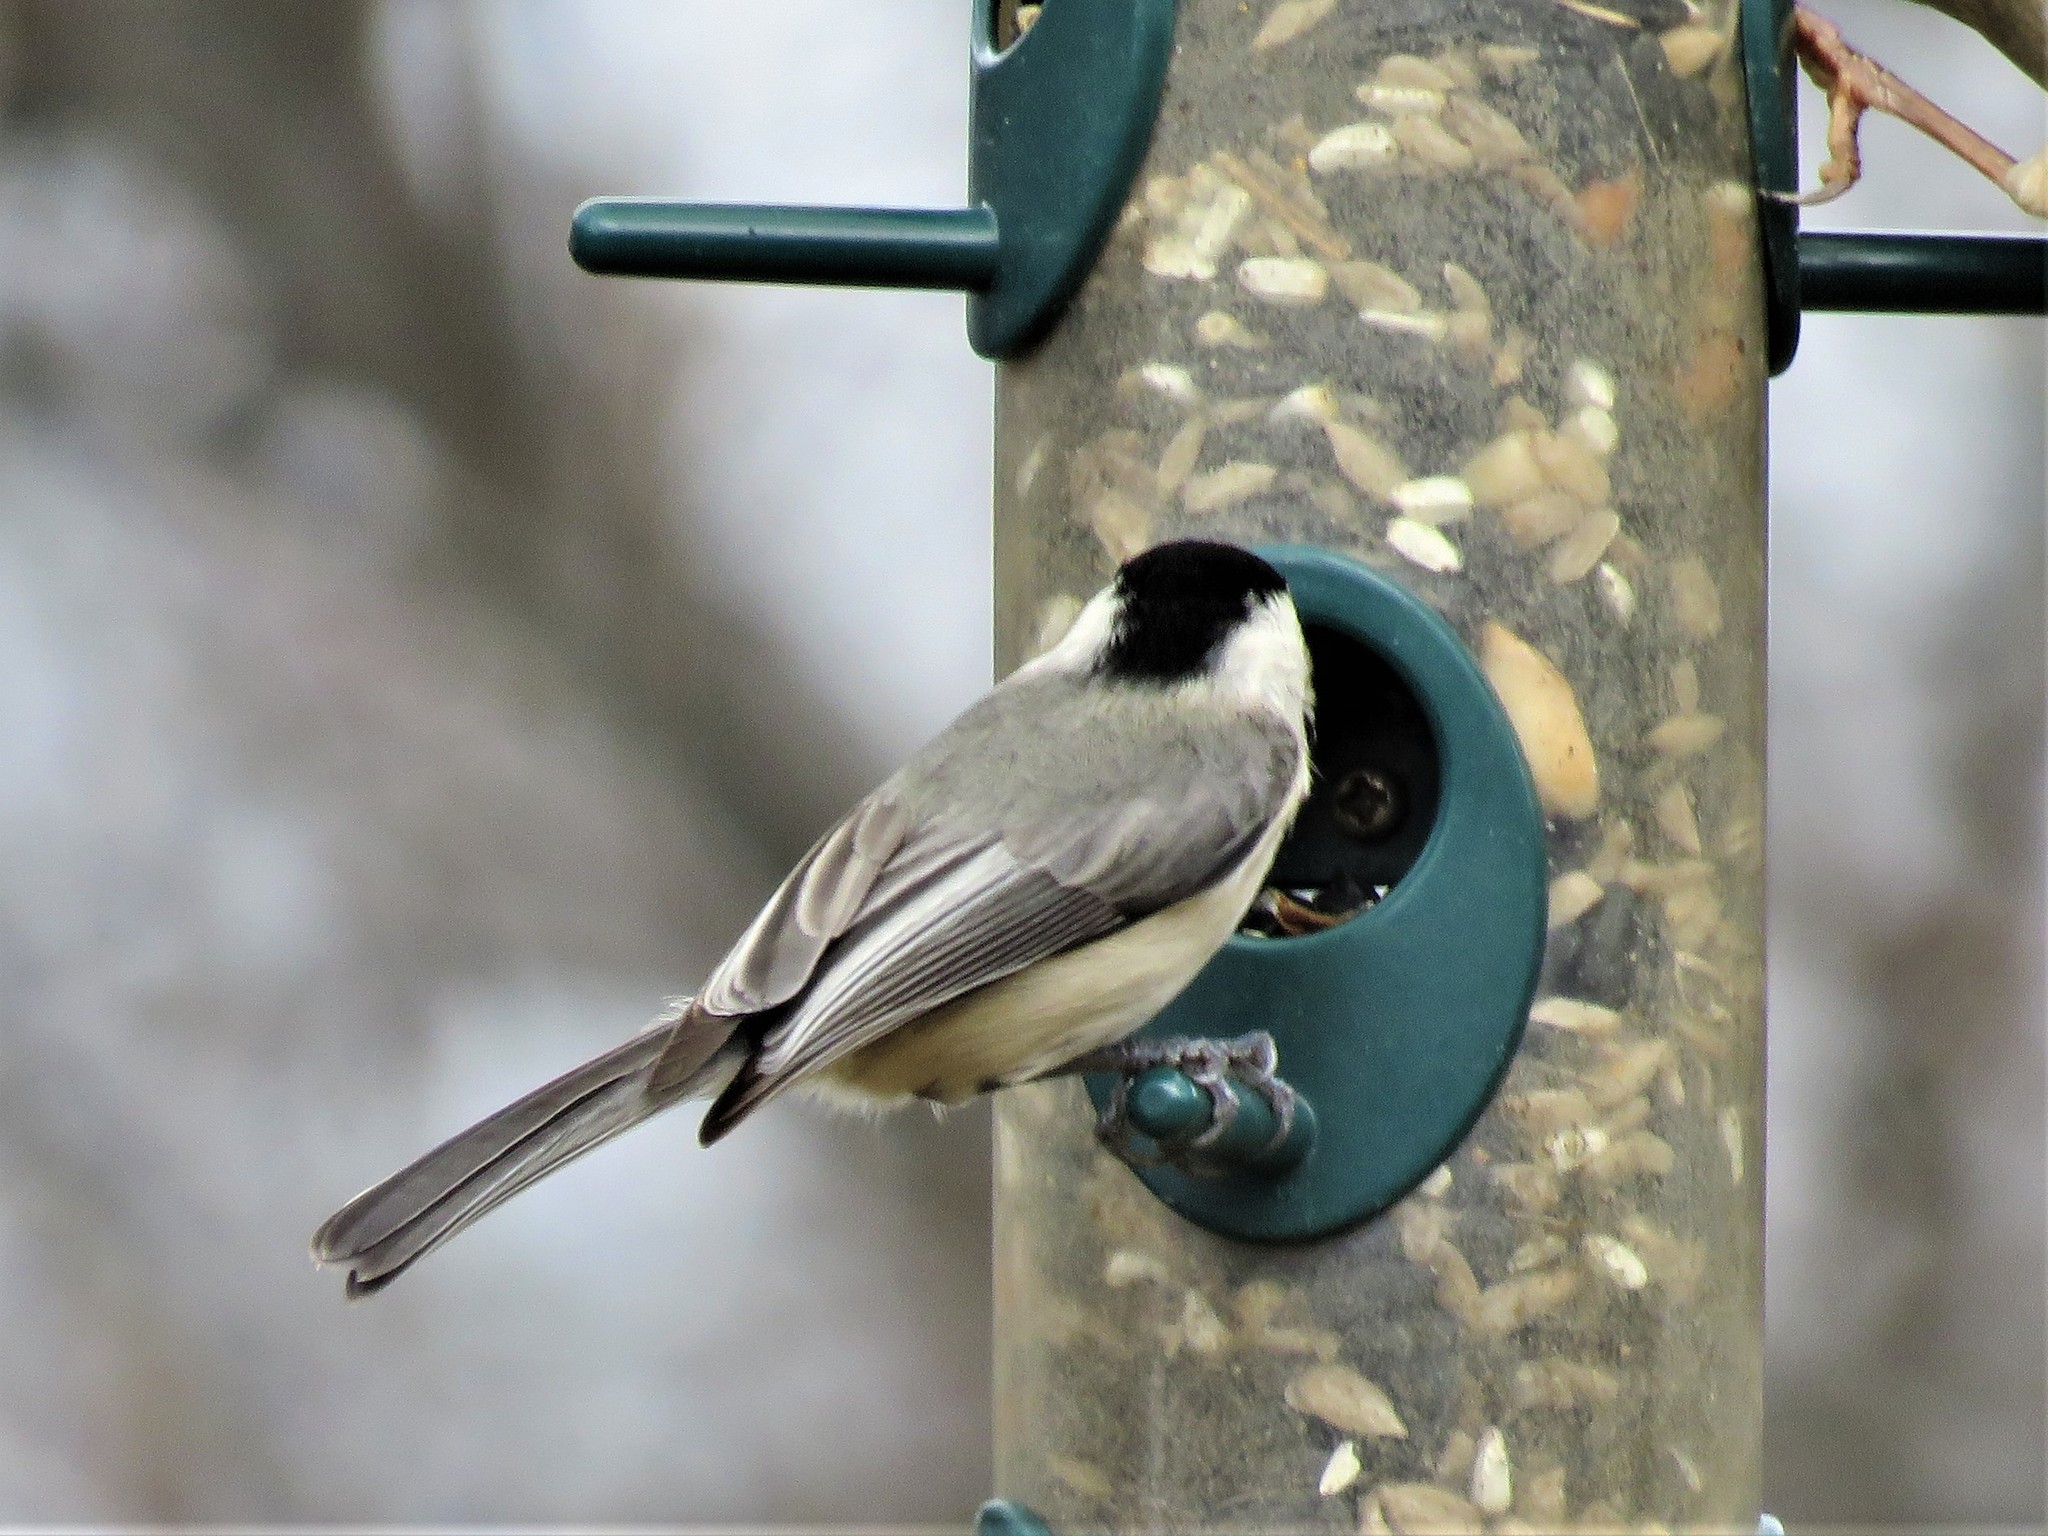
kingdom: Animalia
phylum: Chordata
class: Aves
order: Passeriformes
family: Paridae
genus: Poecile
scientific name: Poecile carolinensis
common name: Carolina chickadee
